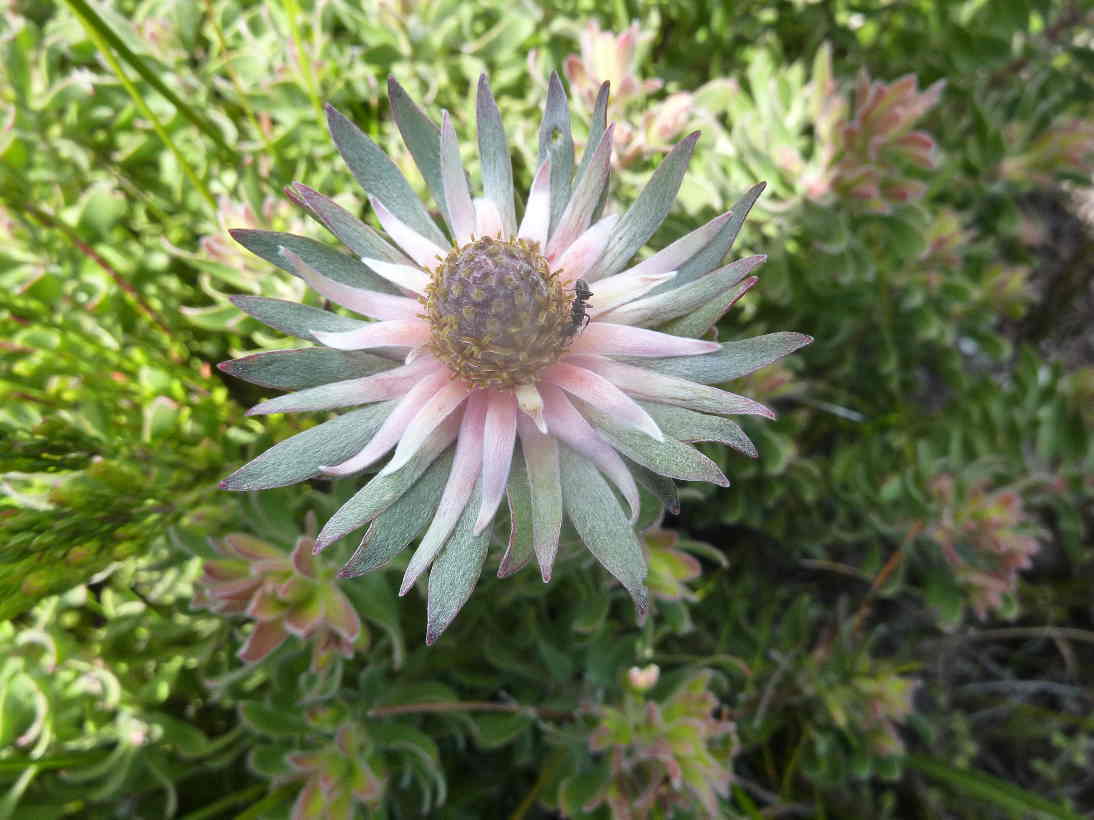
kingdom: Plantae
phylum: Tracheophyta
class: Magnoliopsida
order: Proteales
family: Proteaceae
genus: Leucadendron
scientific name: Leucadendron radiatum
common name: Langeberg conebush
